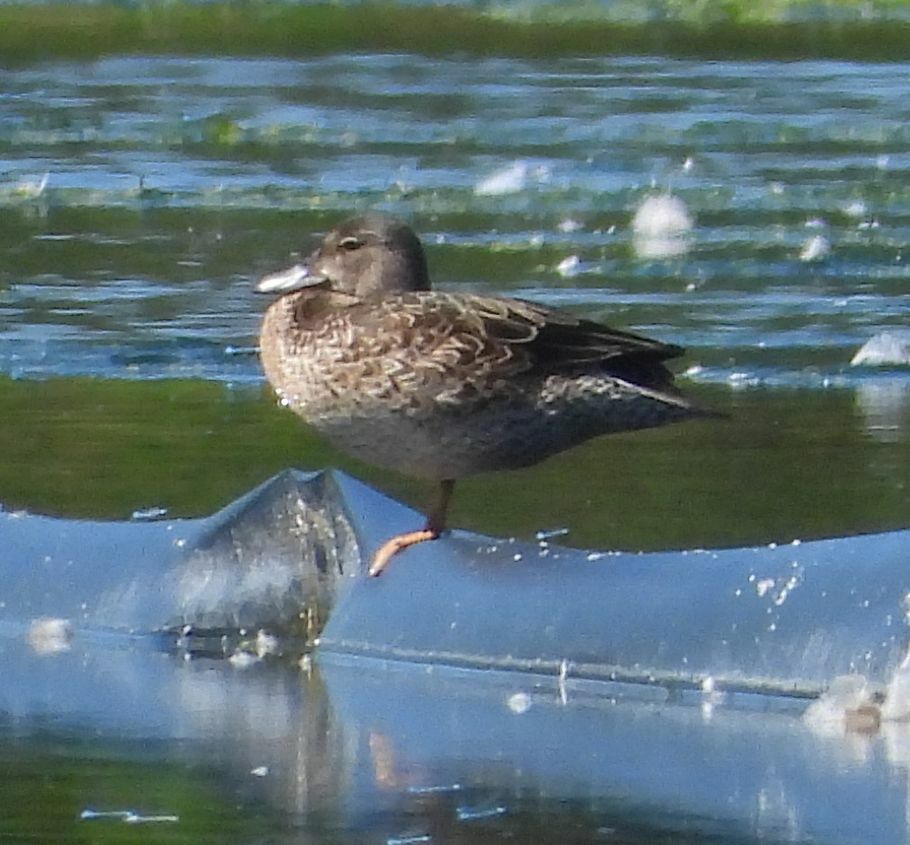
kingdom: Animalia
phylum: Chordata
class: Aves
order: Anseriformes
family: Anatidae
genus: Spatula
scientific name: Spatula discors
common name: Blue-winged teal
